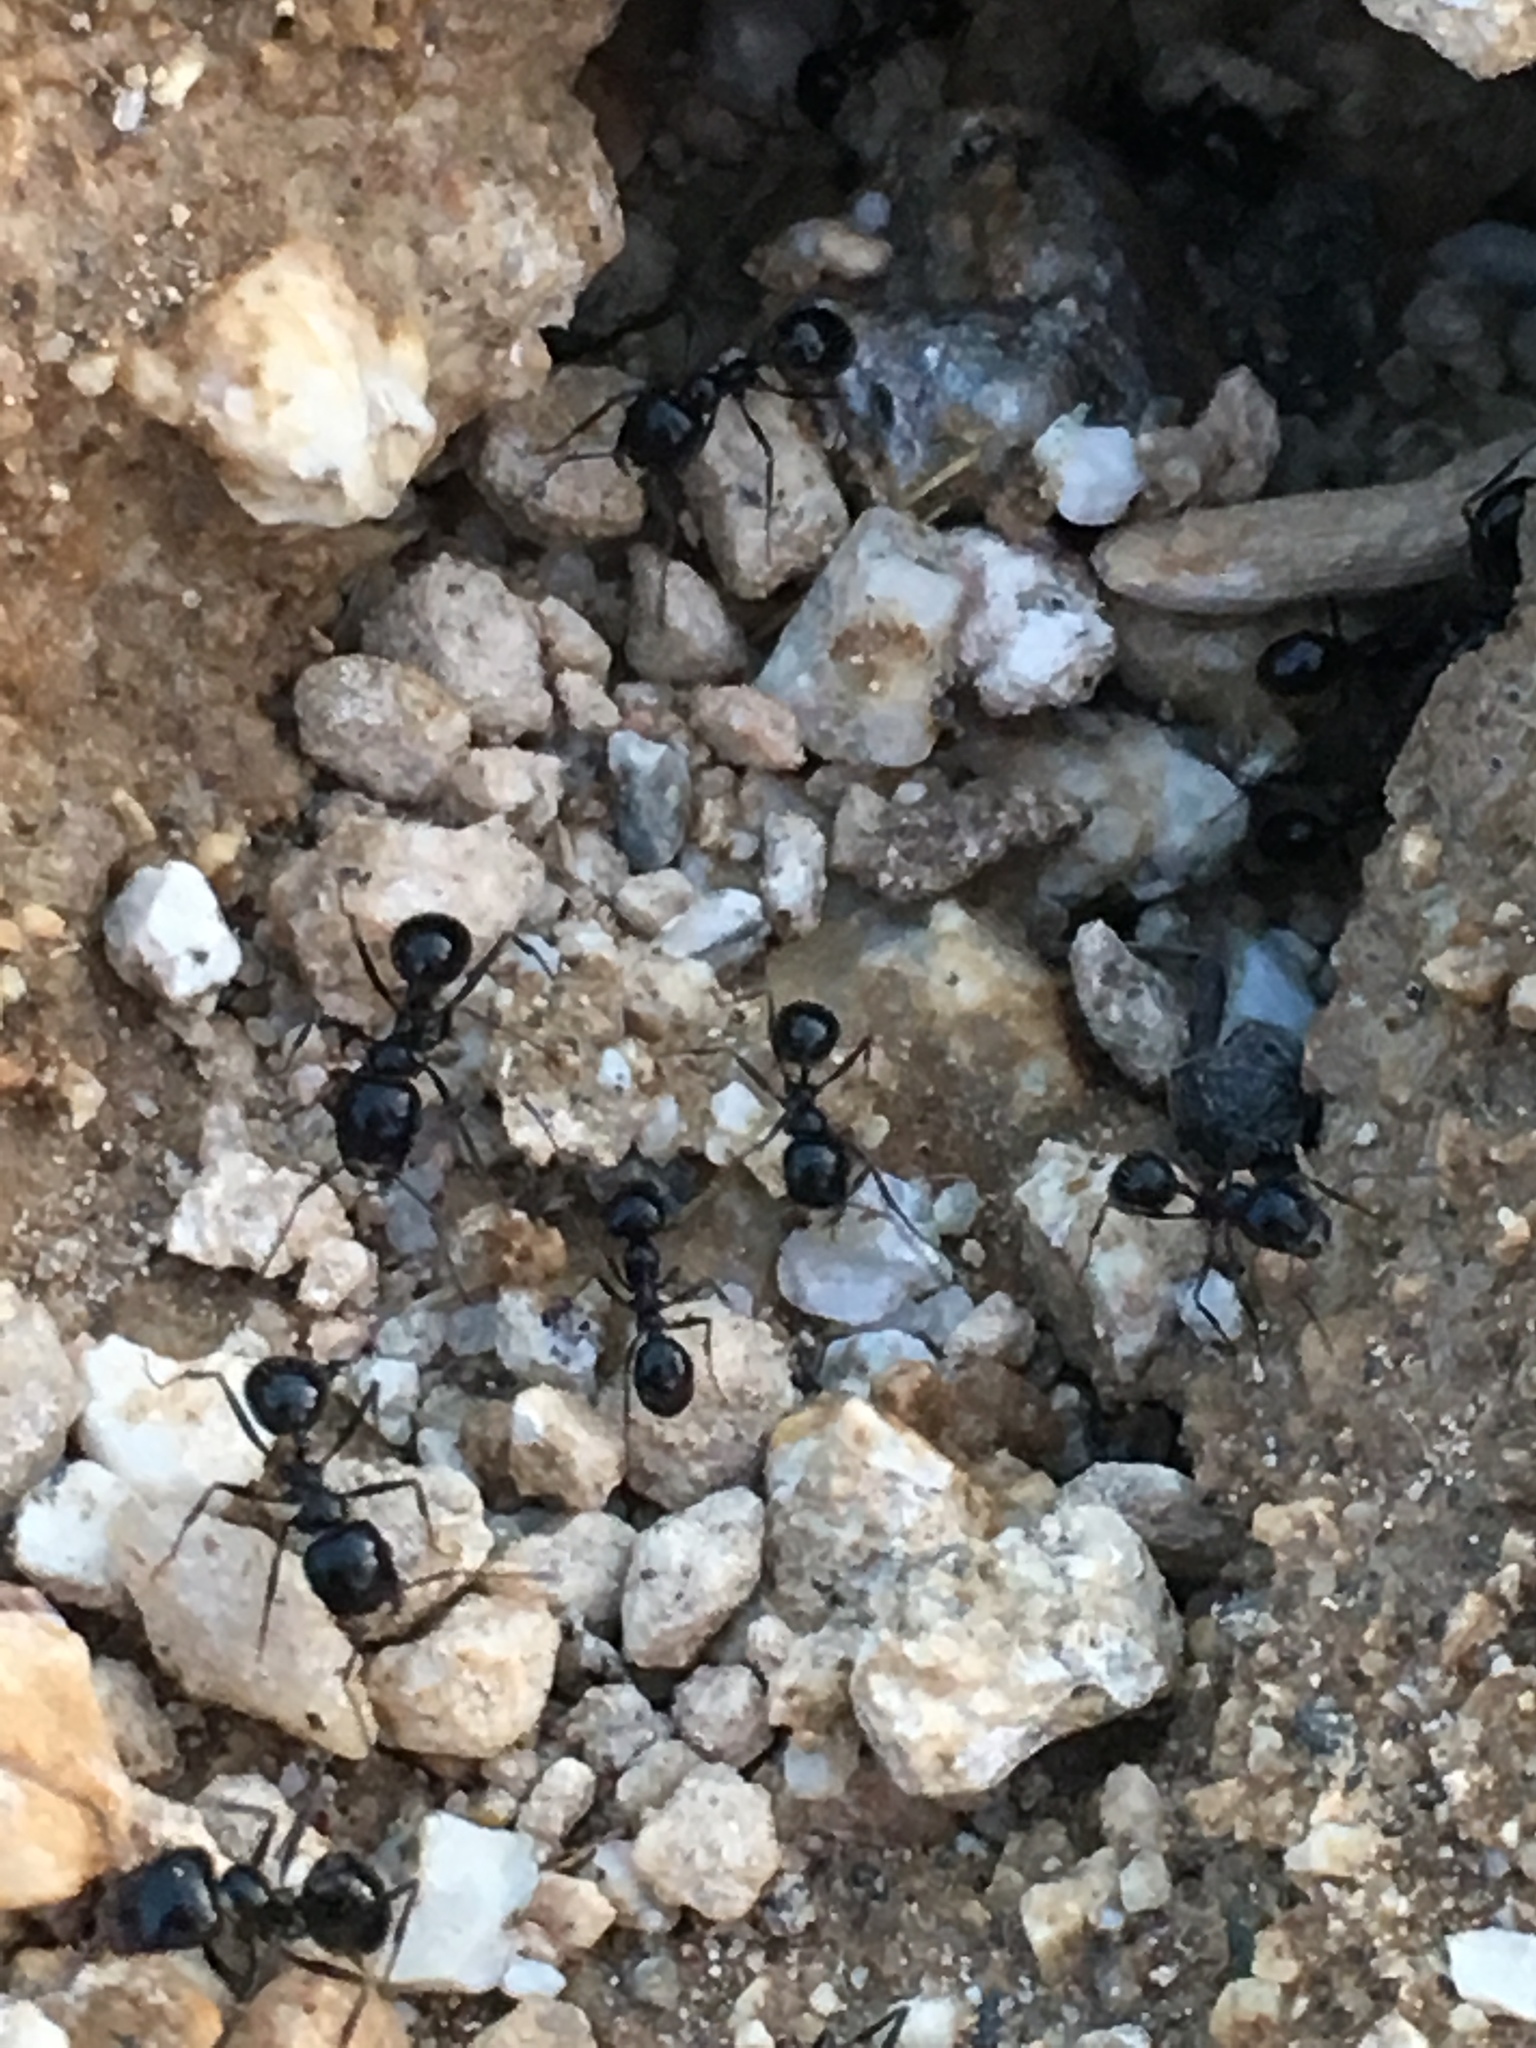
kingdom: Animalia
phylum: Arthropoda
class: Insecta
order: Hymenoptera
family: Formicidae
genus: Messor
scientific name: Messor pergandei
